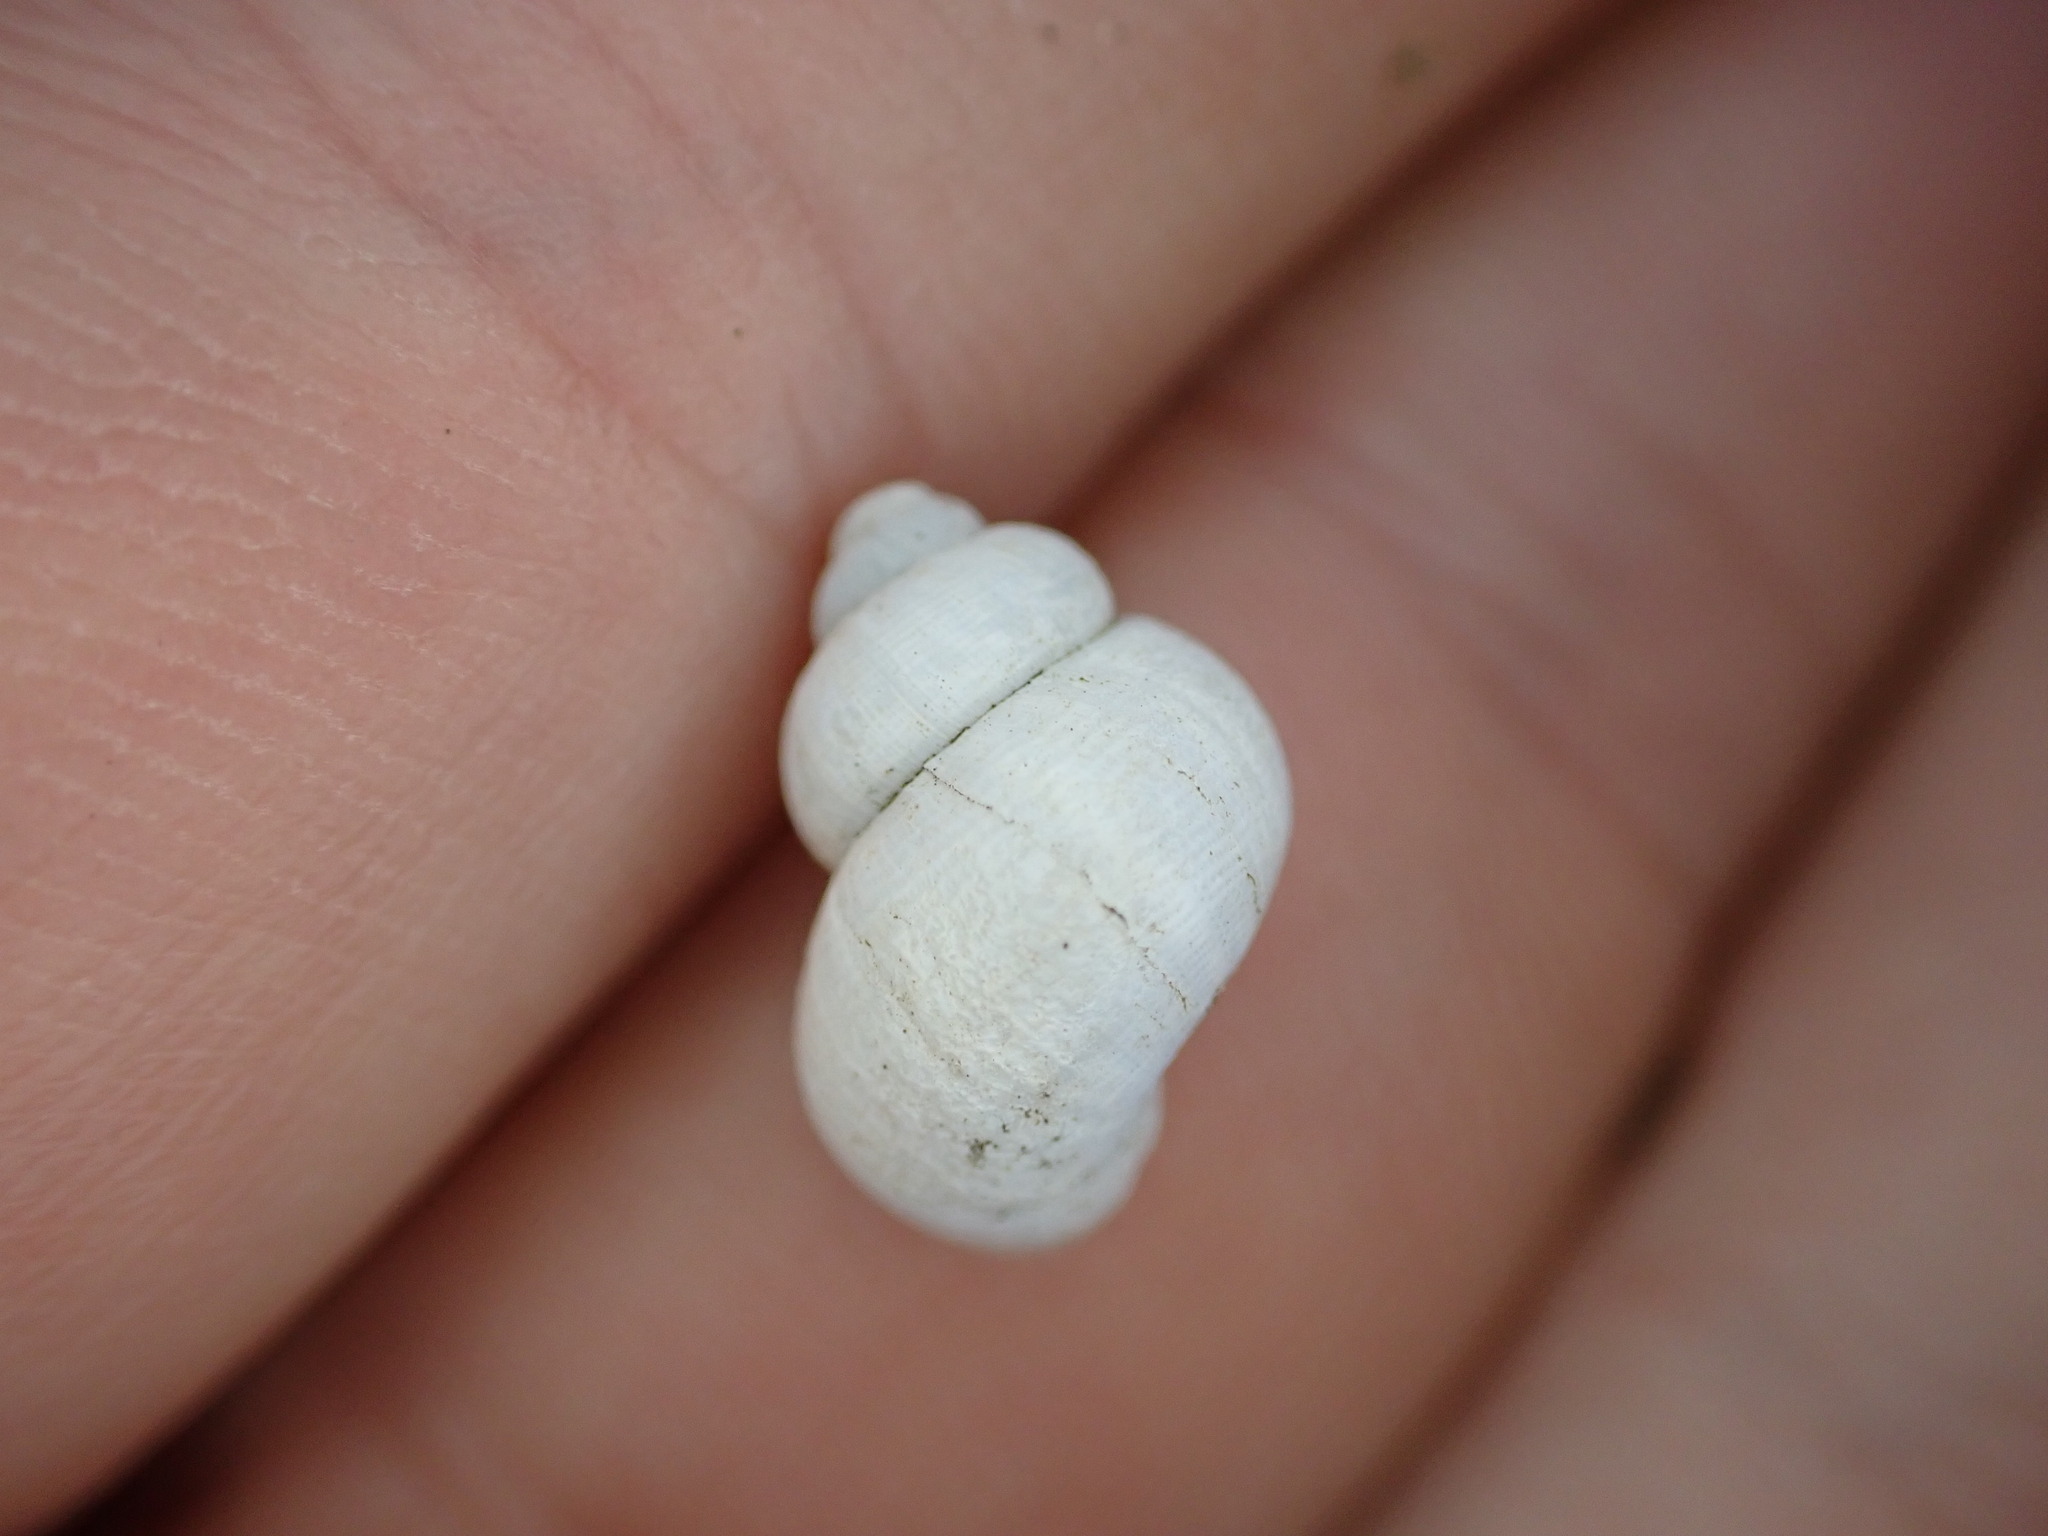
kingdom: Animalia
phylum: Mollusca
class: Gastropoda
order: Littorinimorpha
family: Pomatiidae
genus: Pomatias
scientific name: Pomatias elegans
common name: Red-mouthed snail
